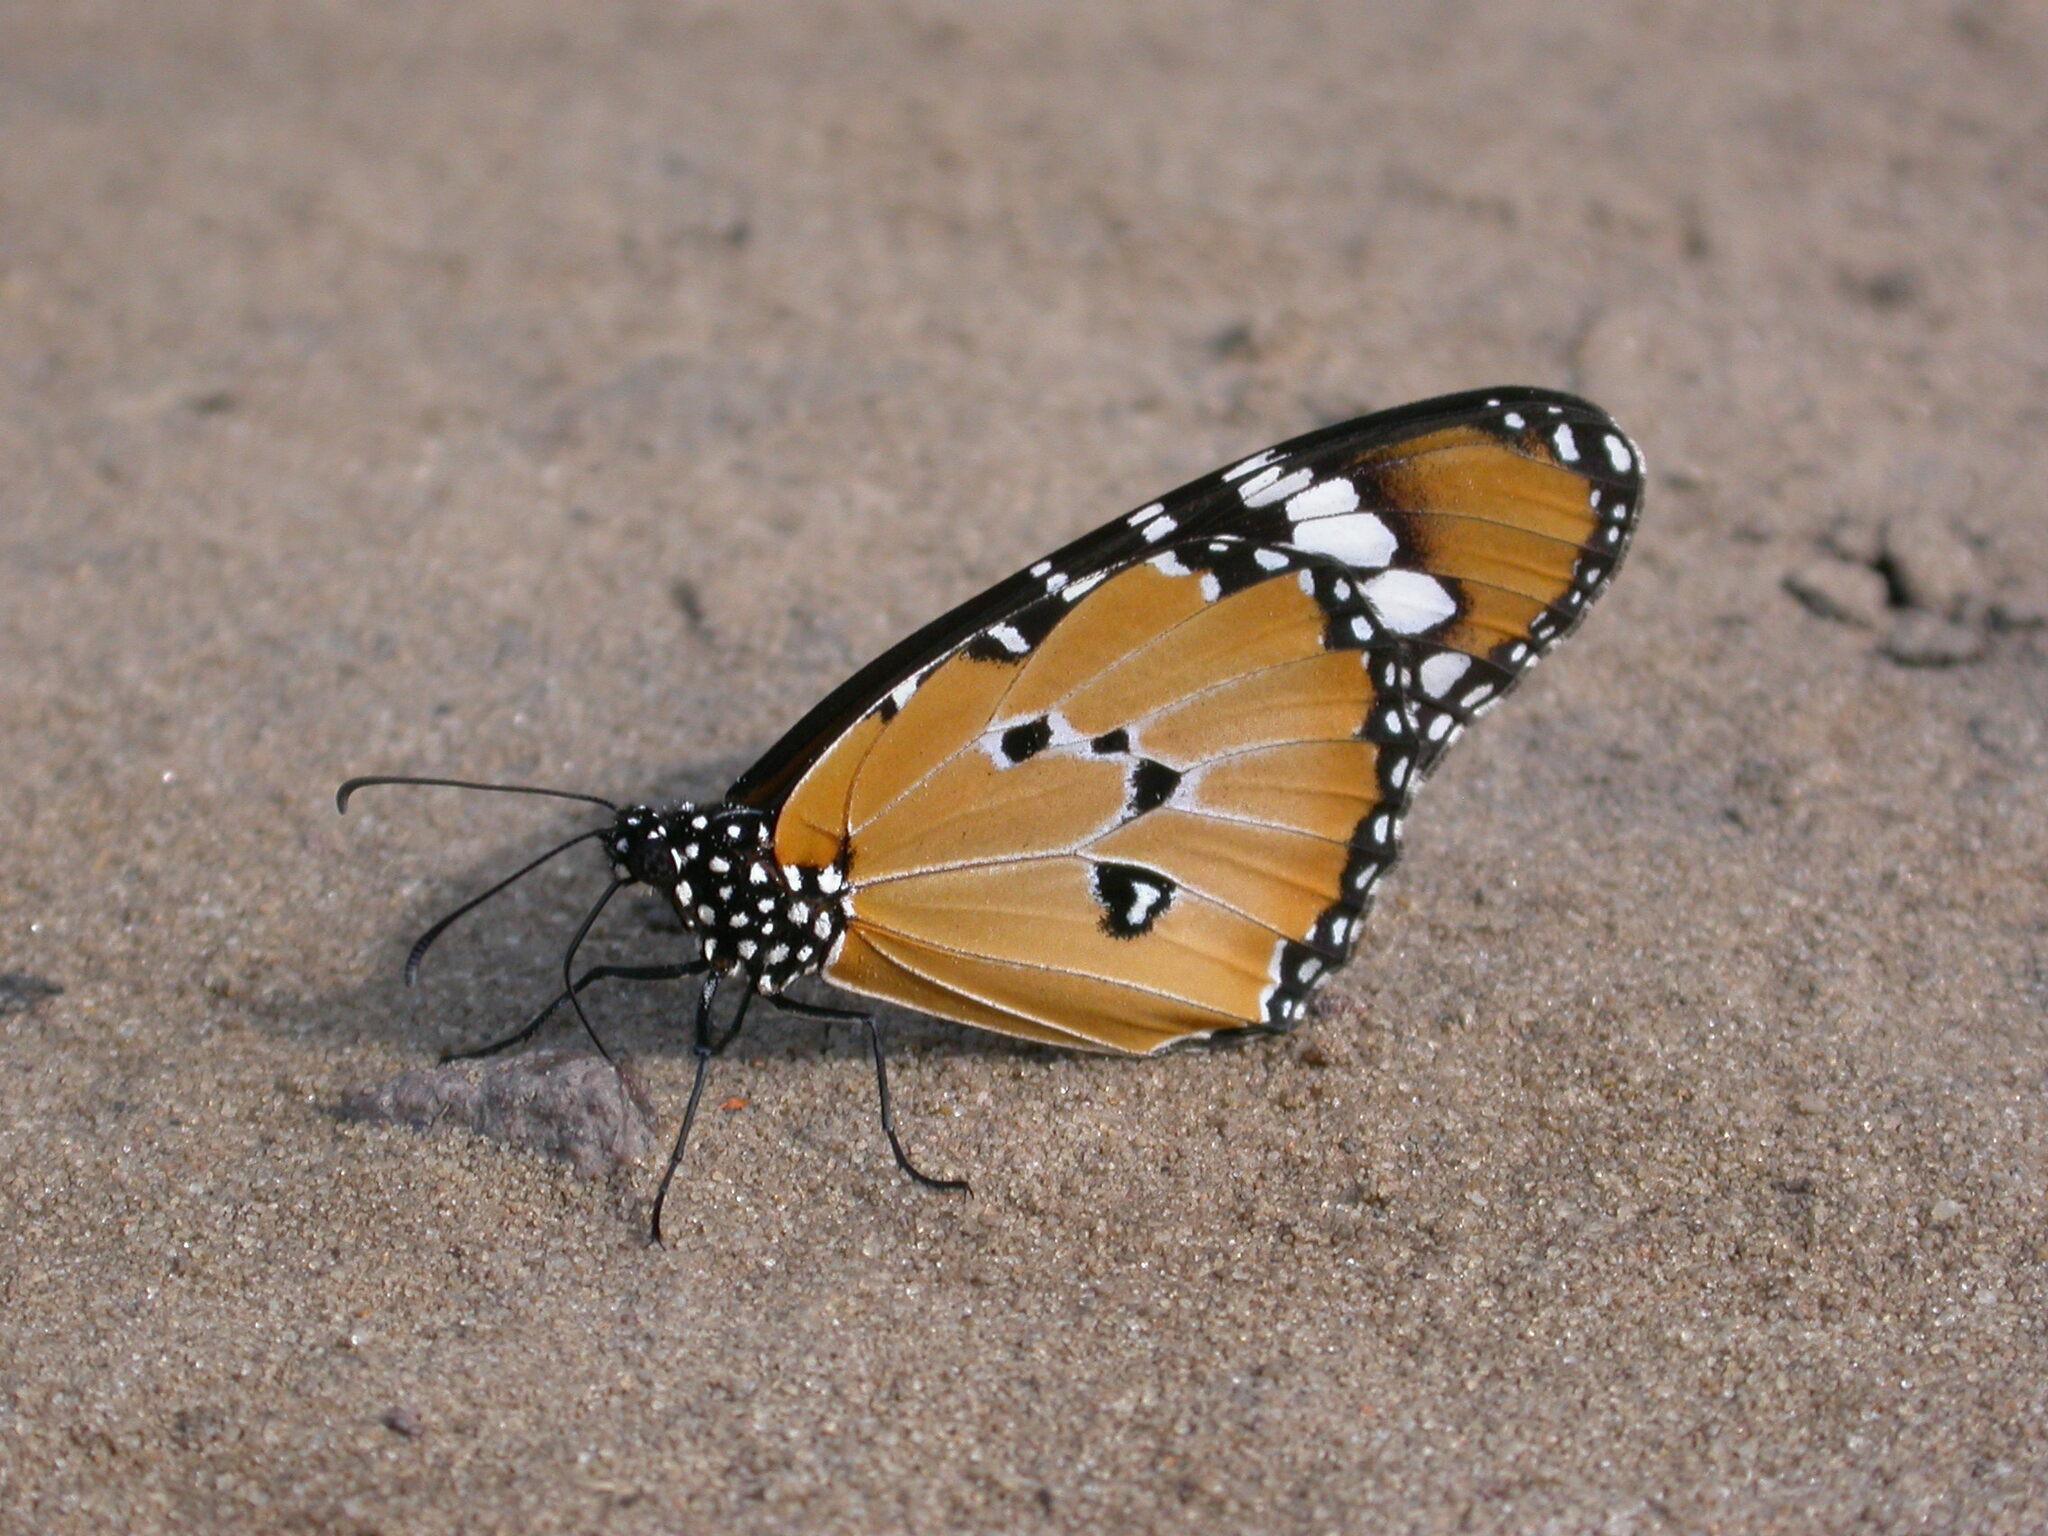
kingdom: Animalia
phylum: Arthropoda
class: Insecta
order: Lepidoptera
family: Nymphalidae
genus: Danaus
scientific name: Danaus chrysippus
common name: Plain tiger
